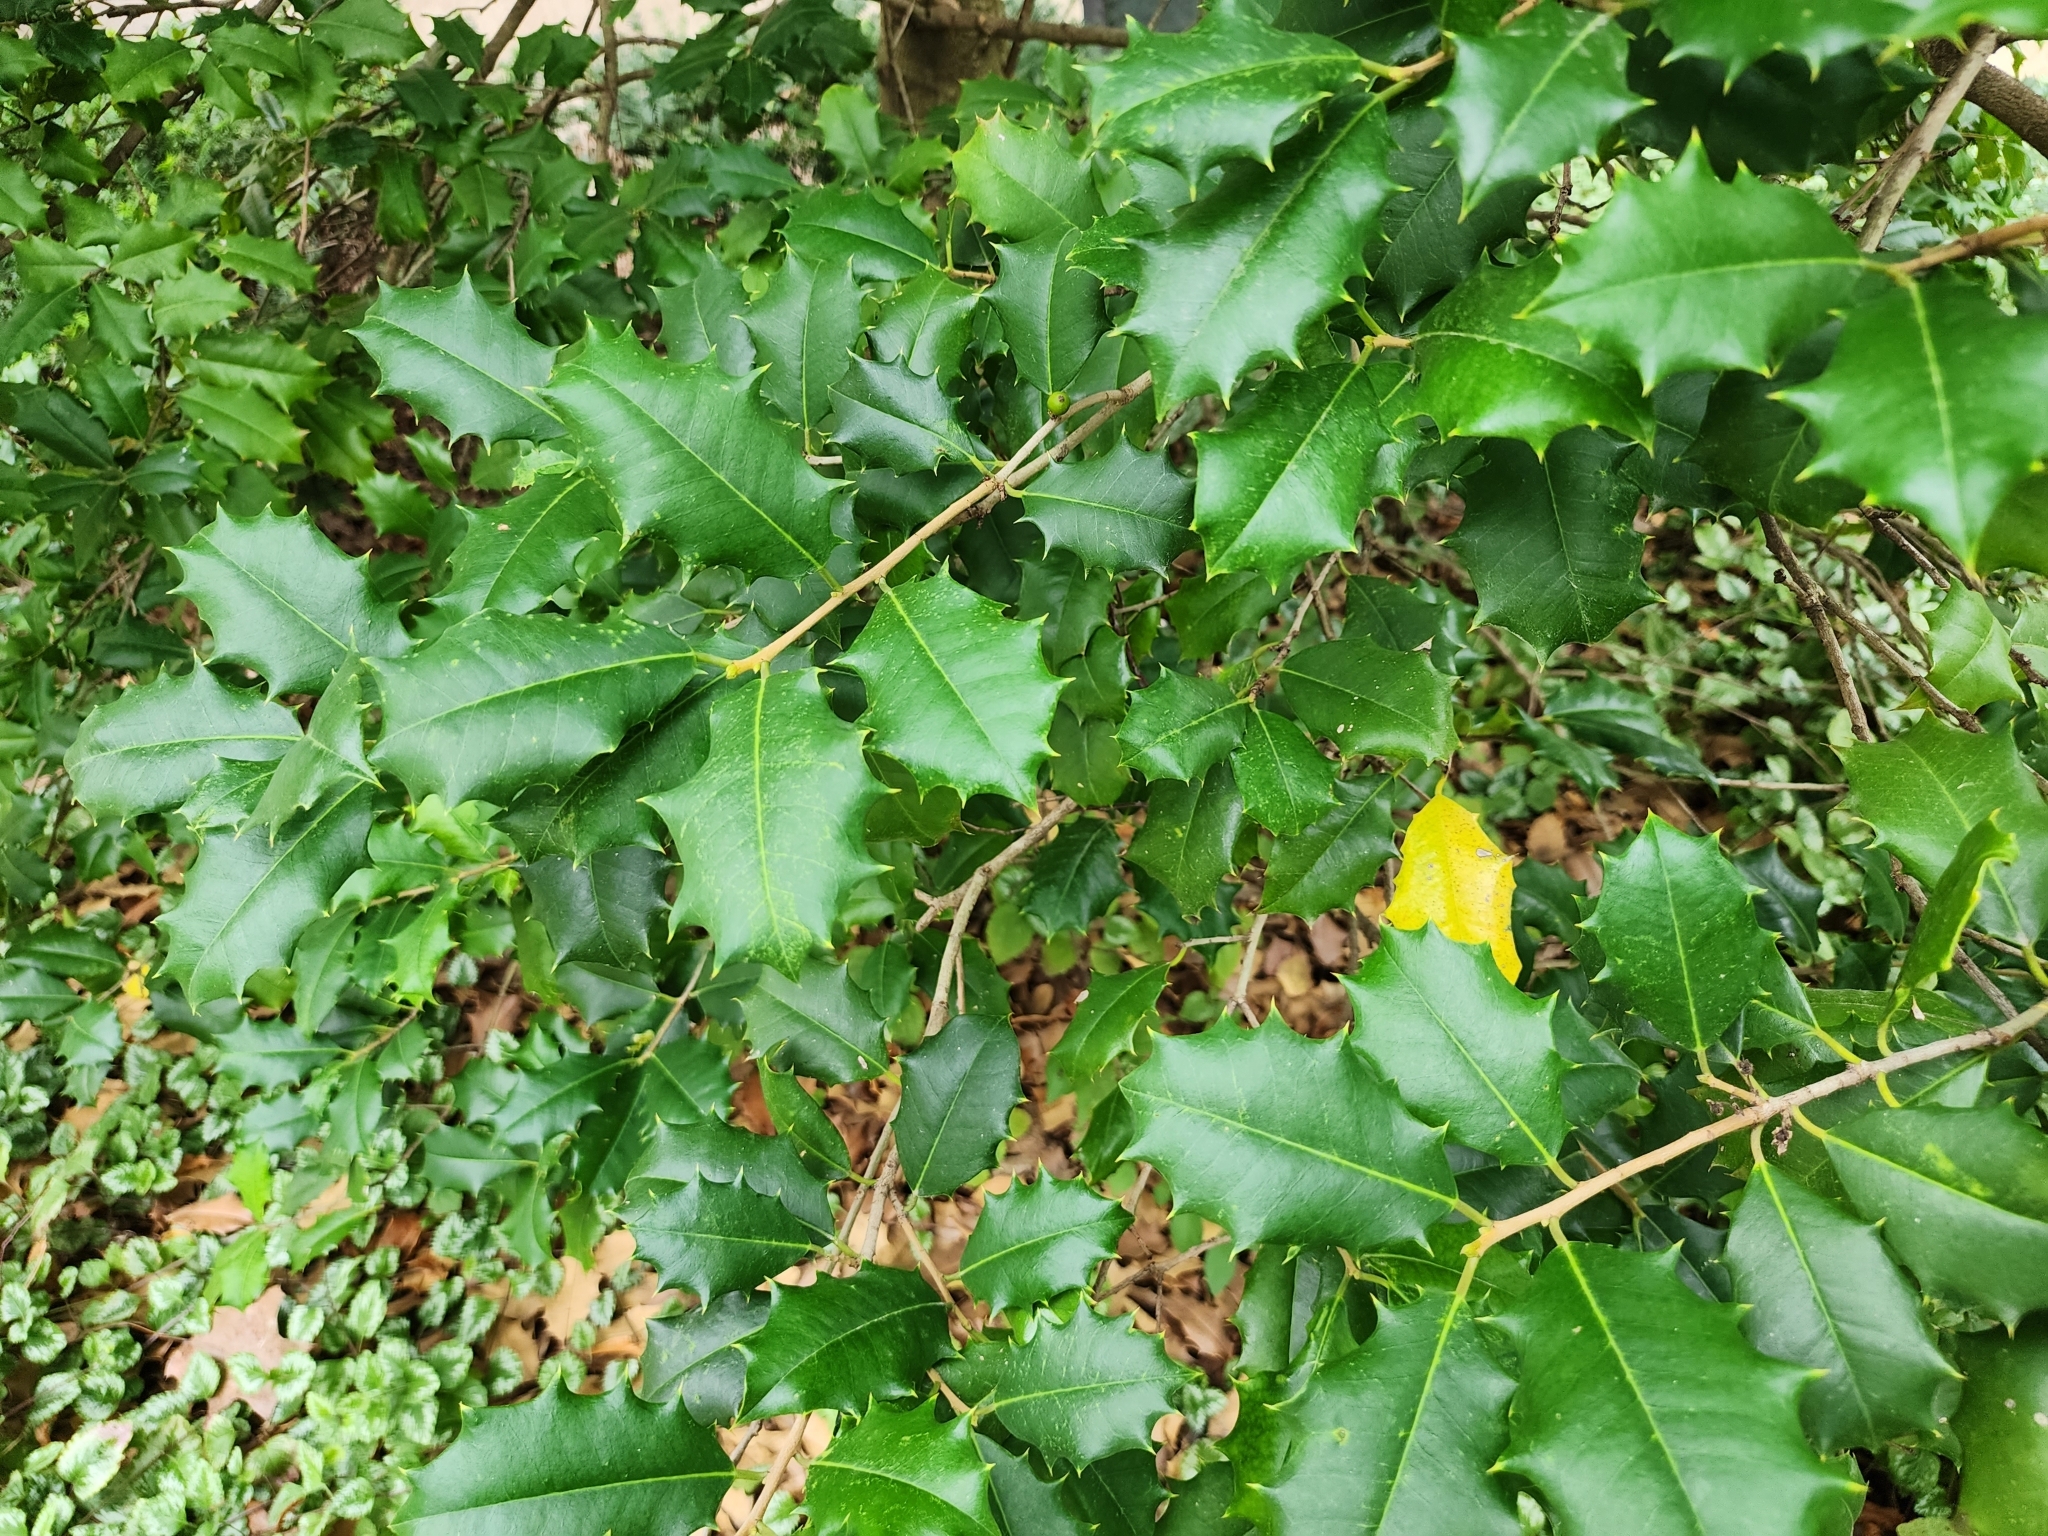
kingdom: Plantae
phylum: Tracheophyta
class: Magnoliopsida
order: Aquifoliales
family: Aquifoliaceae
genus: Ilex
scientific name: Ilex opaca
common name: American holly
